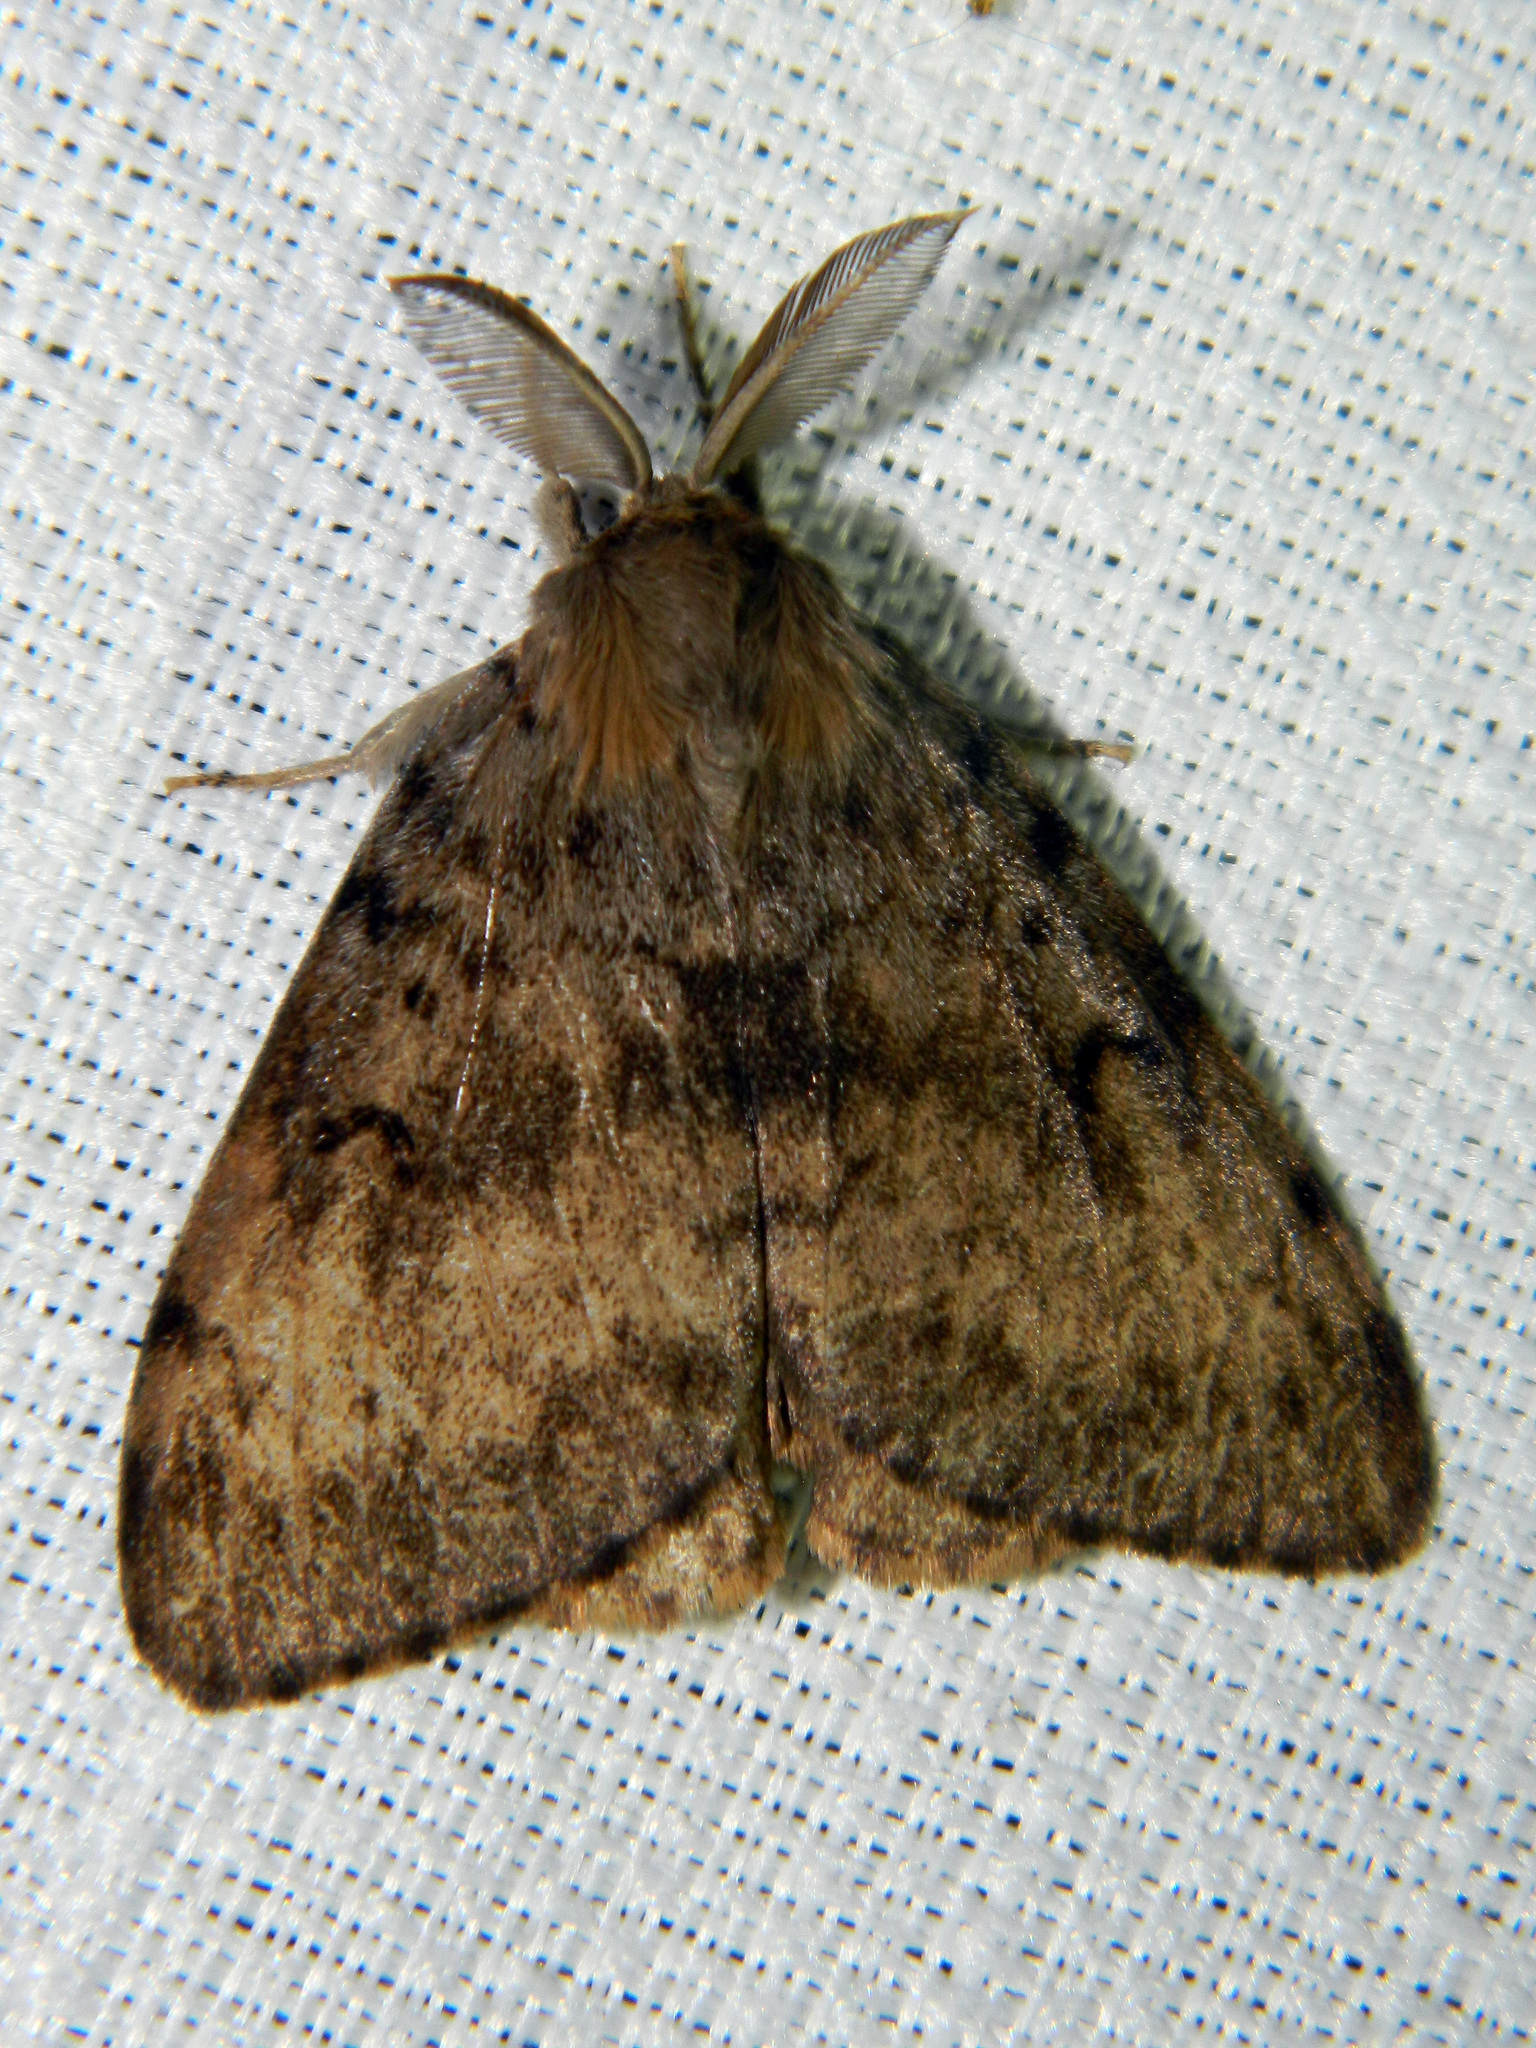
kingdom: Animalia
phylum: Arthropoda
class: Insecta
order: Lepidoptera
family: Erebidae
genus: Lymantria
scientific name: Lymantria dispar
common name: Gypsy moth
